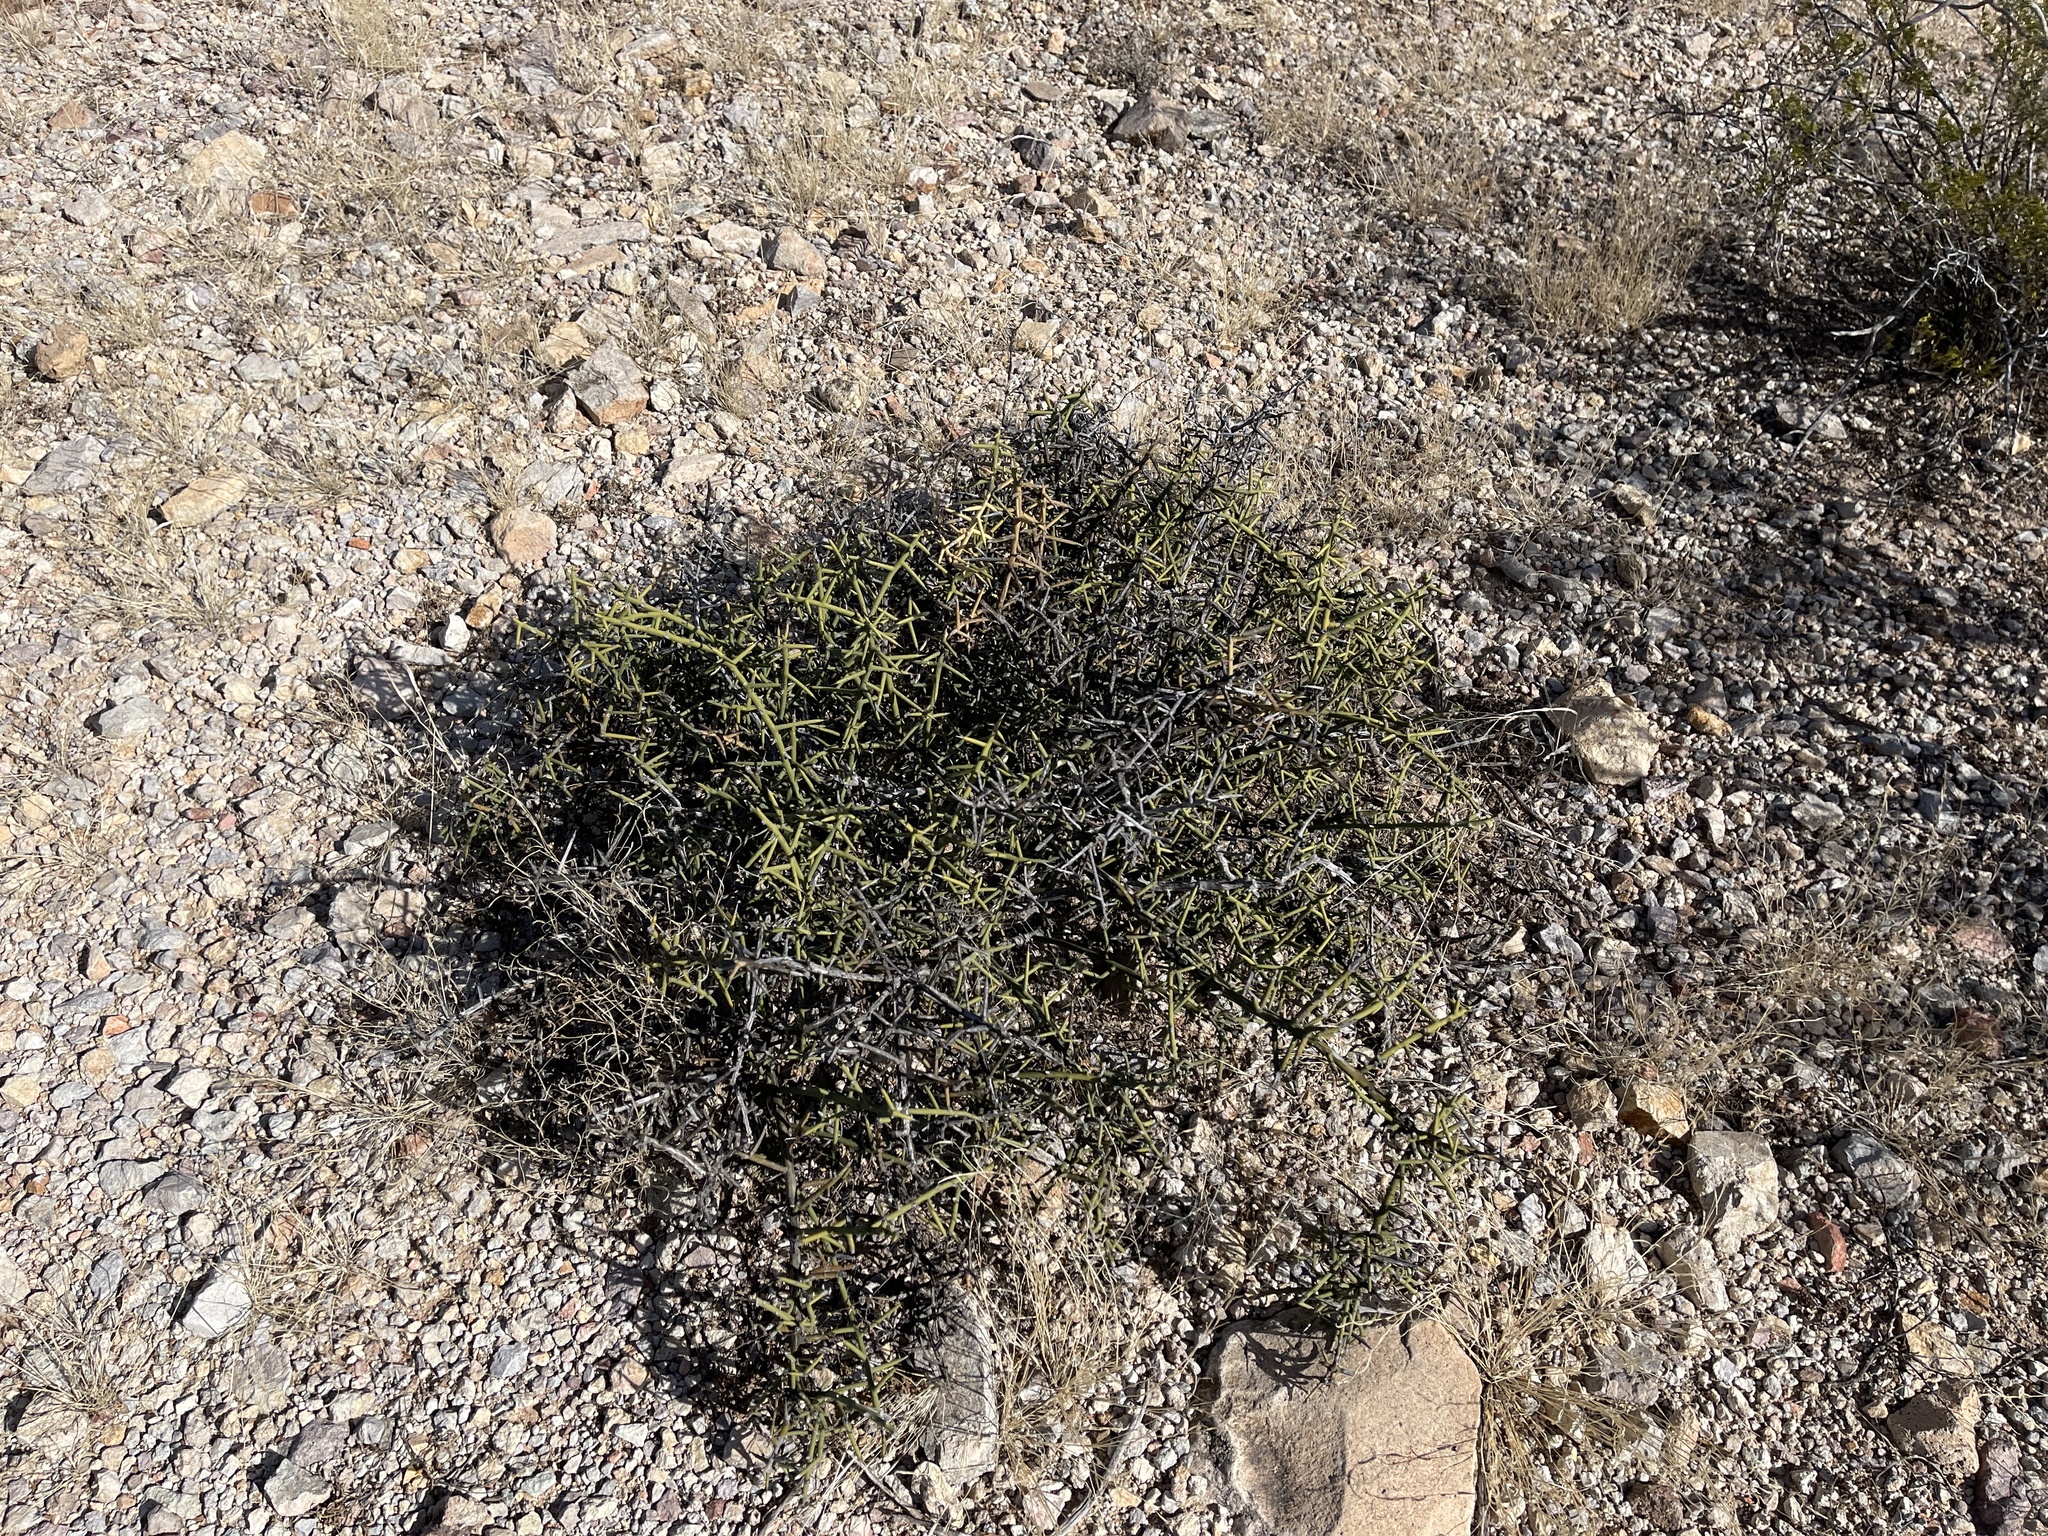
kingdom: Plantae
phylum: Tracheophyta
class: Magnoliopsida
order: Brassicales
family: Koeberliniaceae
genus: Koeberlinia
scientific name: Koeberlinia spinosa
